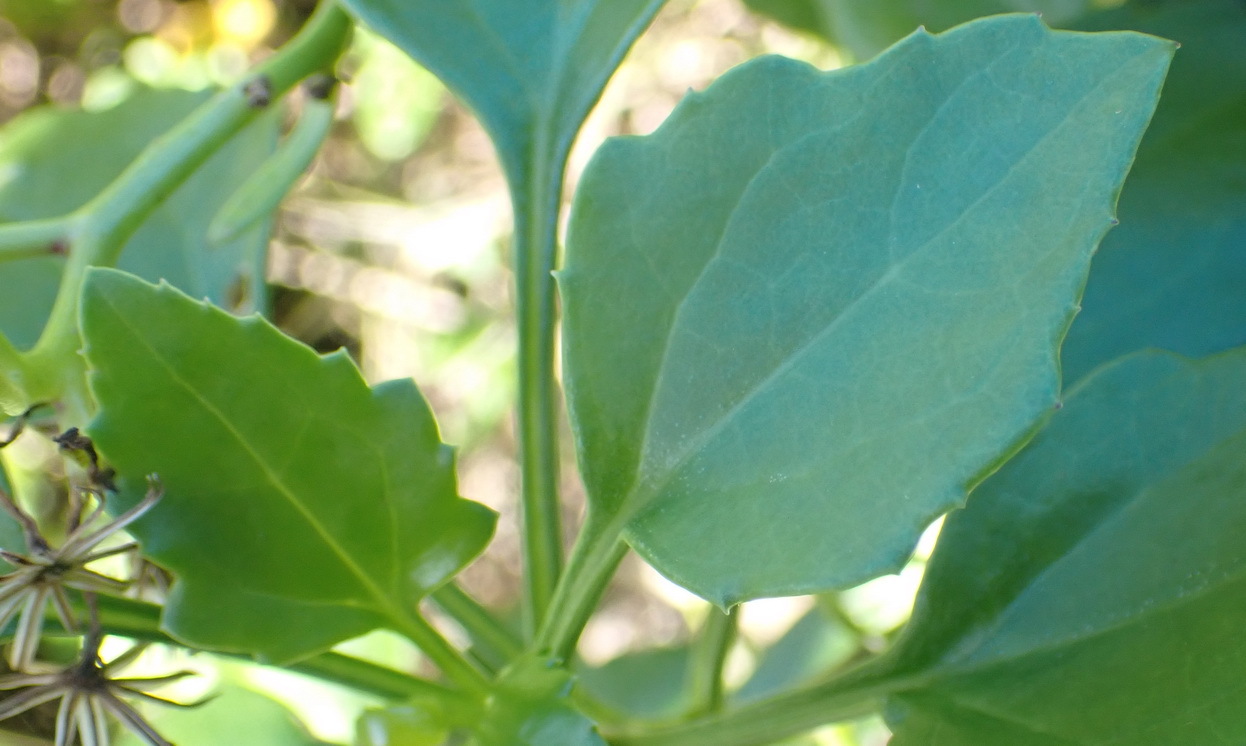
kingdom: Plantae
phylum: Tracheophyta
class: Magnoliopsida
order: Asterales
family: Asteraceae
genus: Senecio
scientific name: Senecio angulatus
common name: Climbing groundsel
